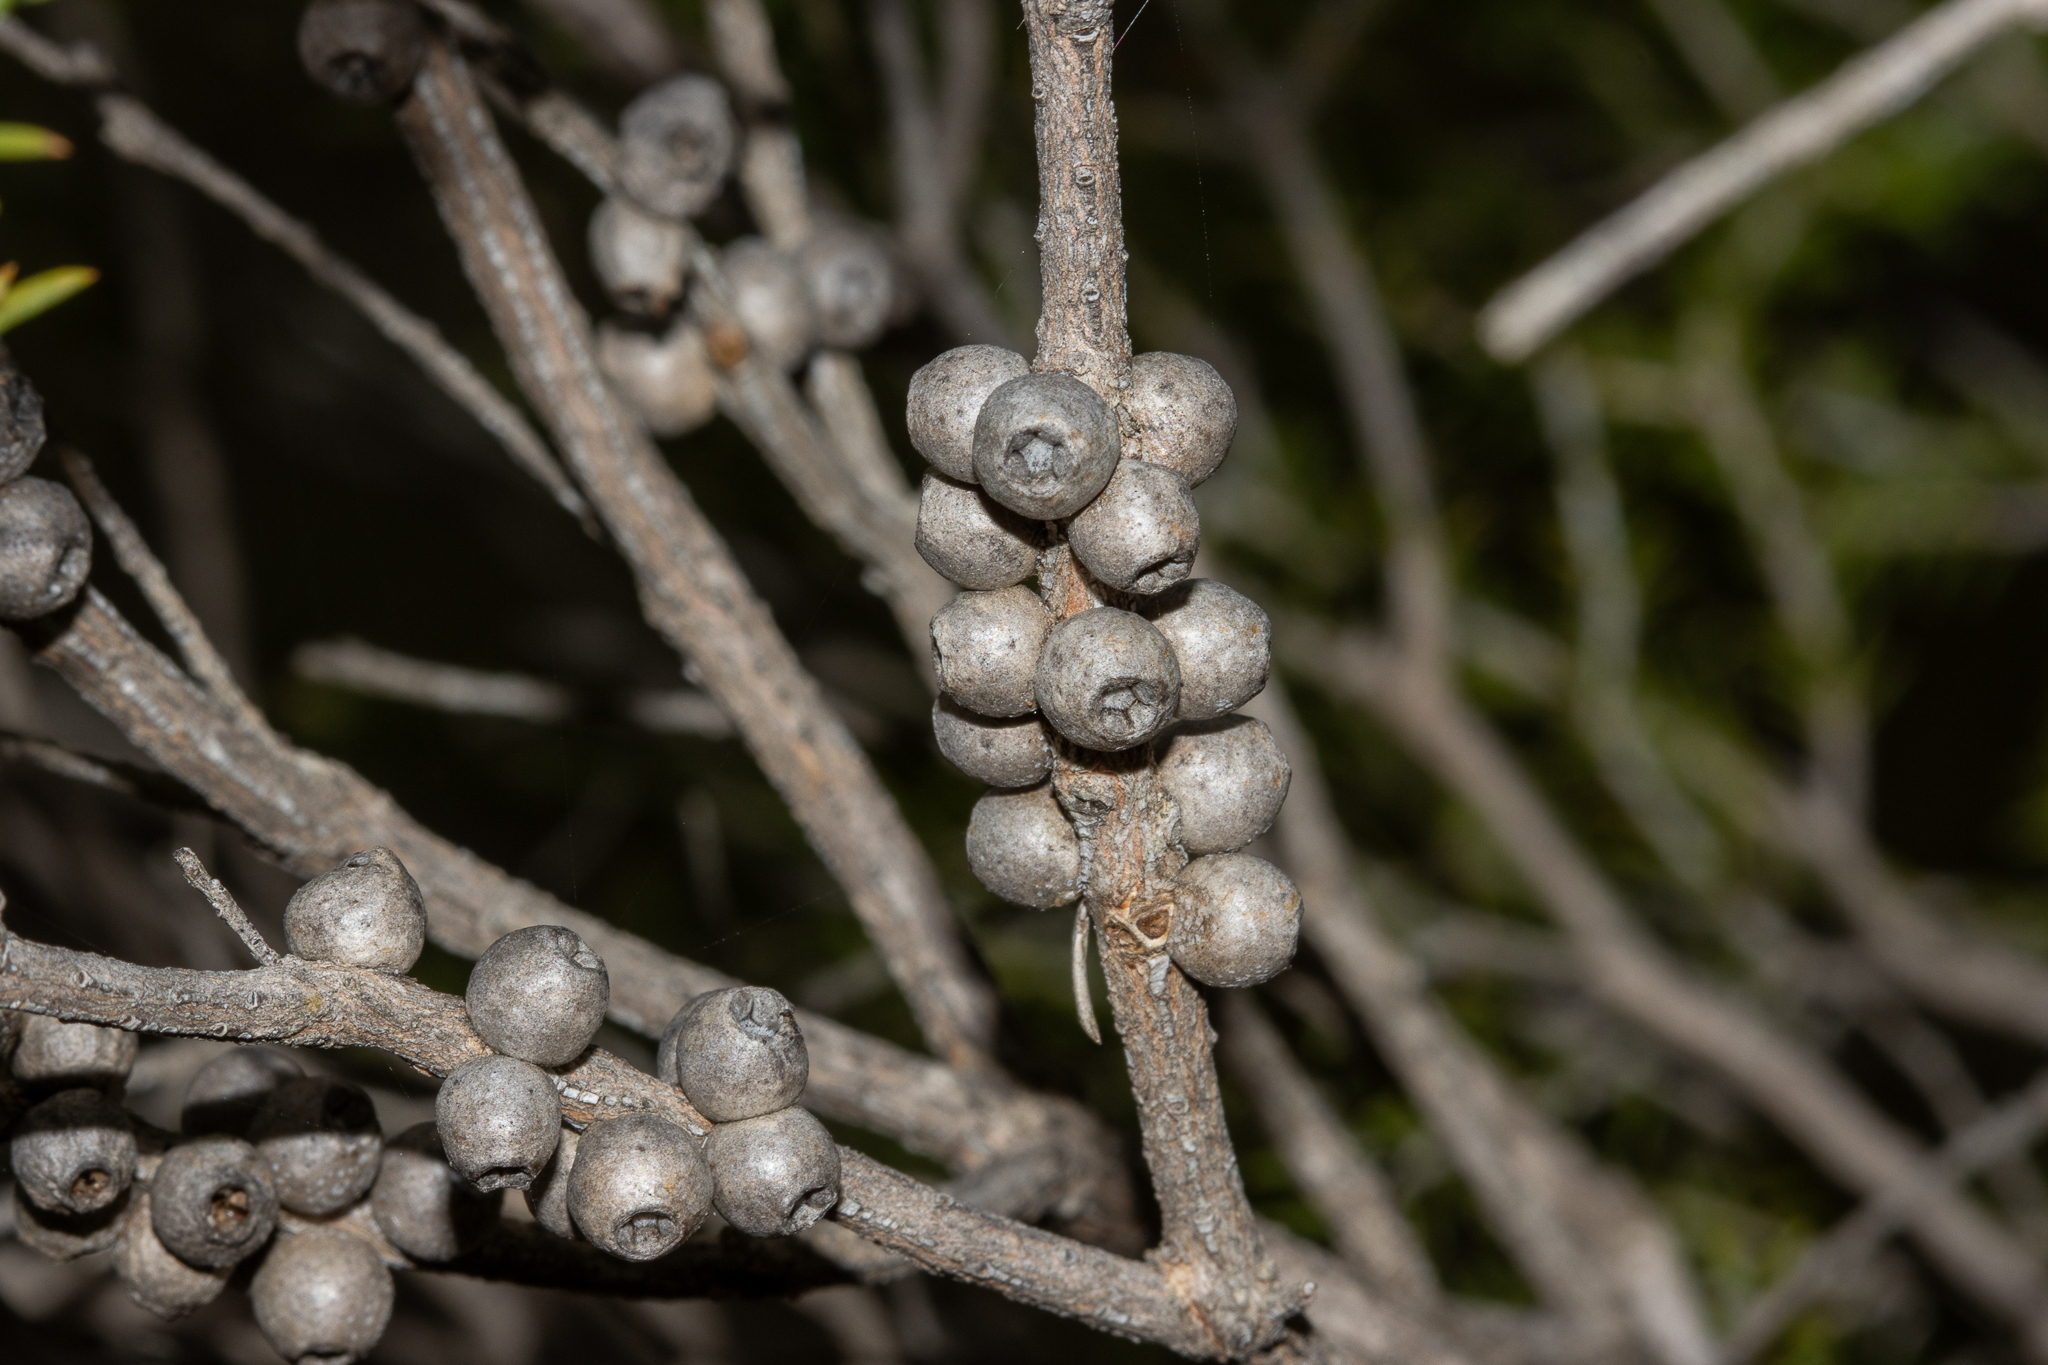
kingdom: Plantae
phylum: Tracheophyta
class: Magnoliopsida
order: Myrtales
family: Myrtaceae
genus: Melaleuca
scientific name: Melaleuca lanceolata
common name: Rottnest island teatree
